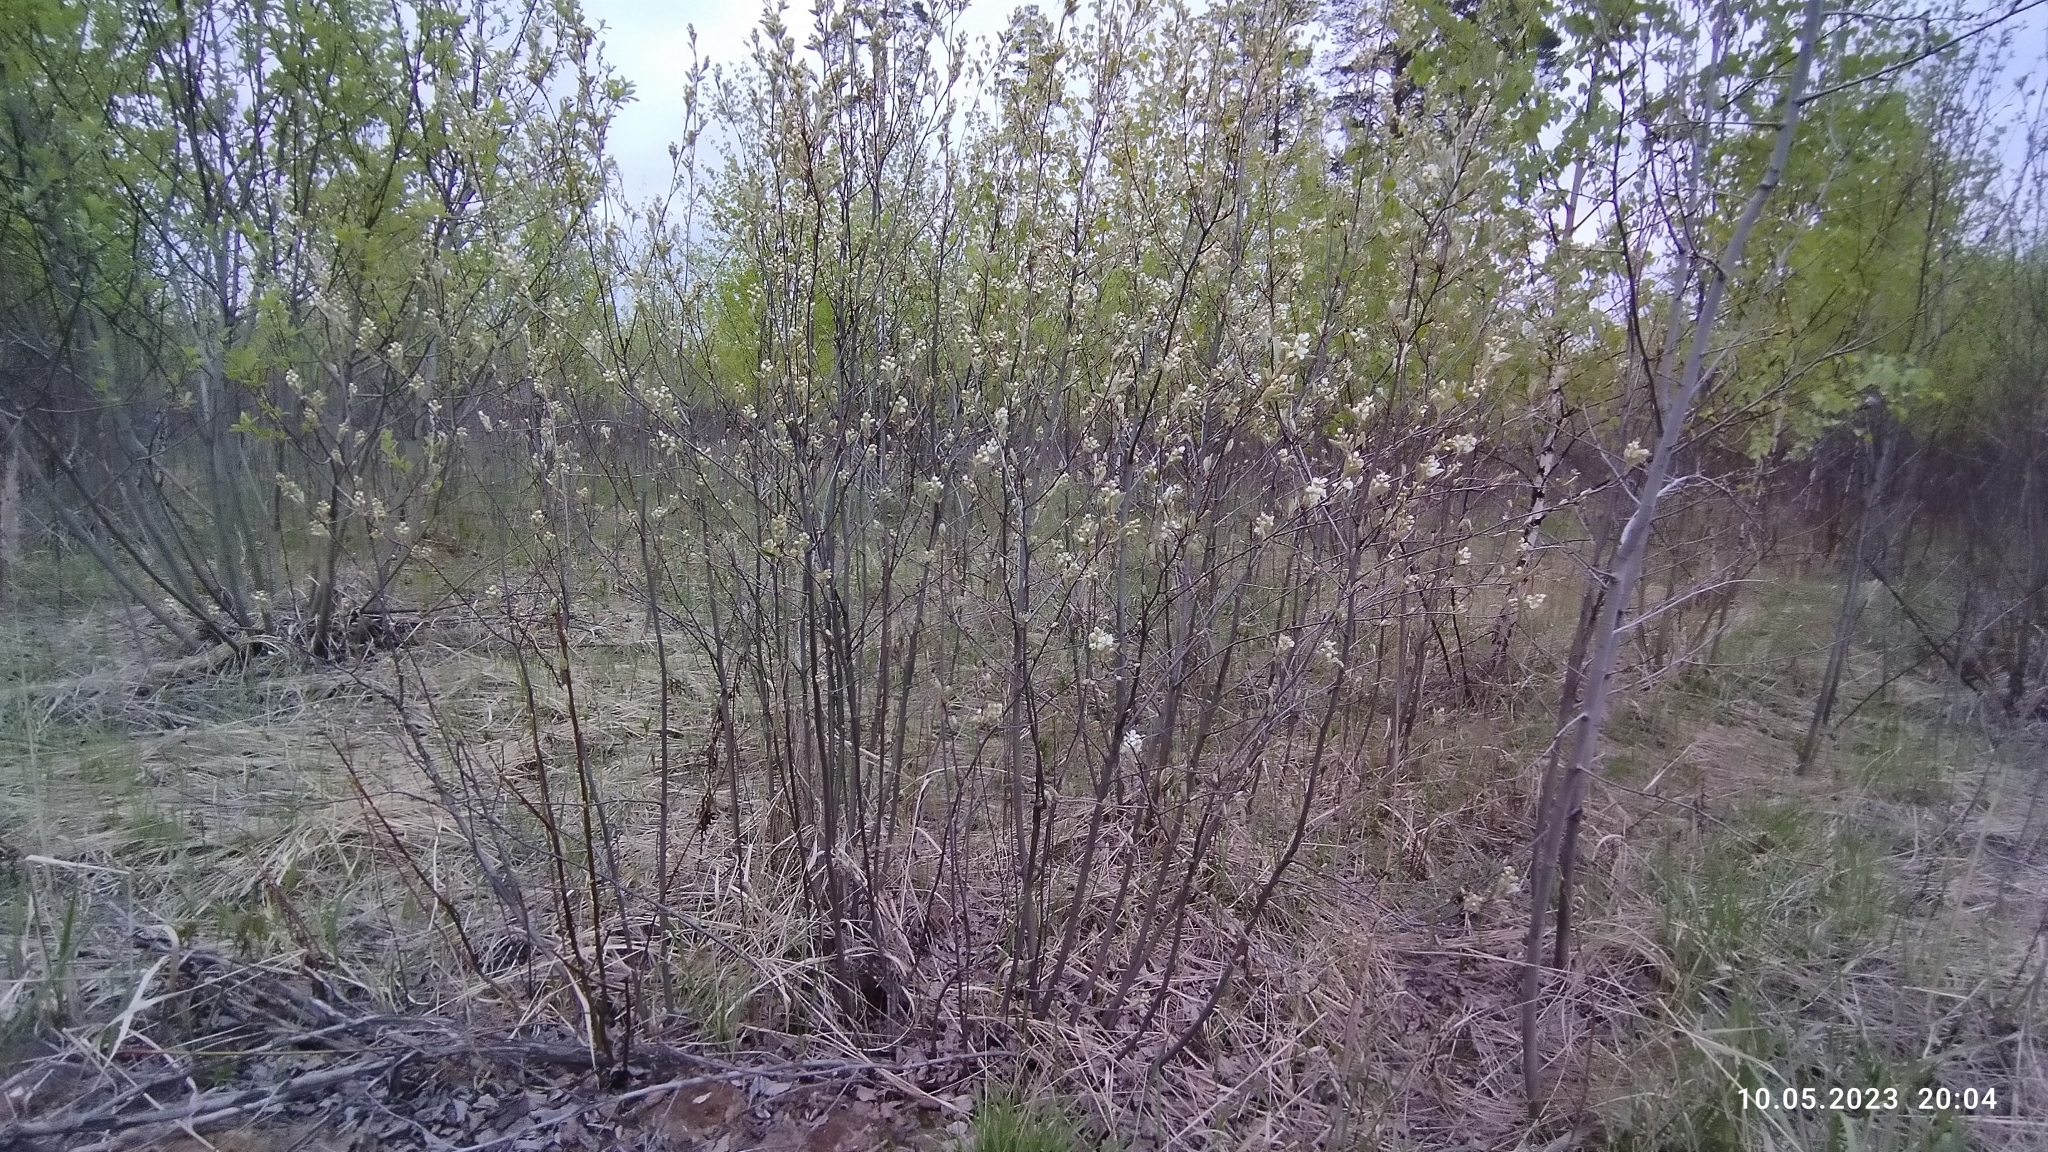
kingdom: Plantae
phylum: Tracheophyta
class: Magnoliopsida
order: Rosales
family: Rosaceae
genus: Amelanchier
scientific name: Amelanchier
